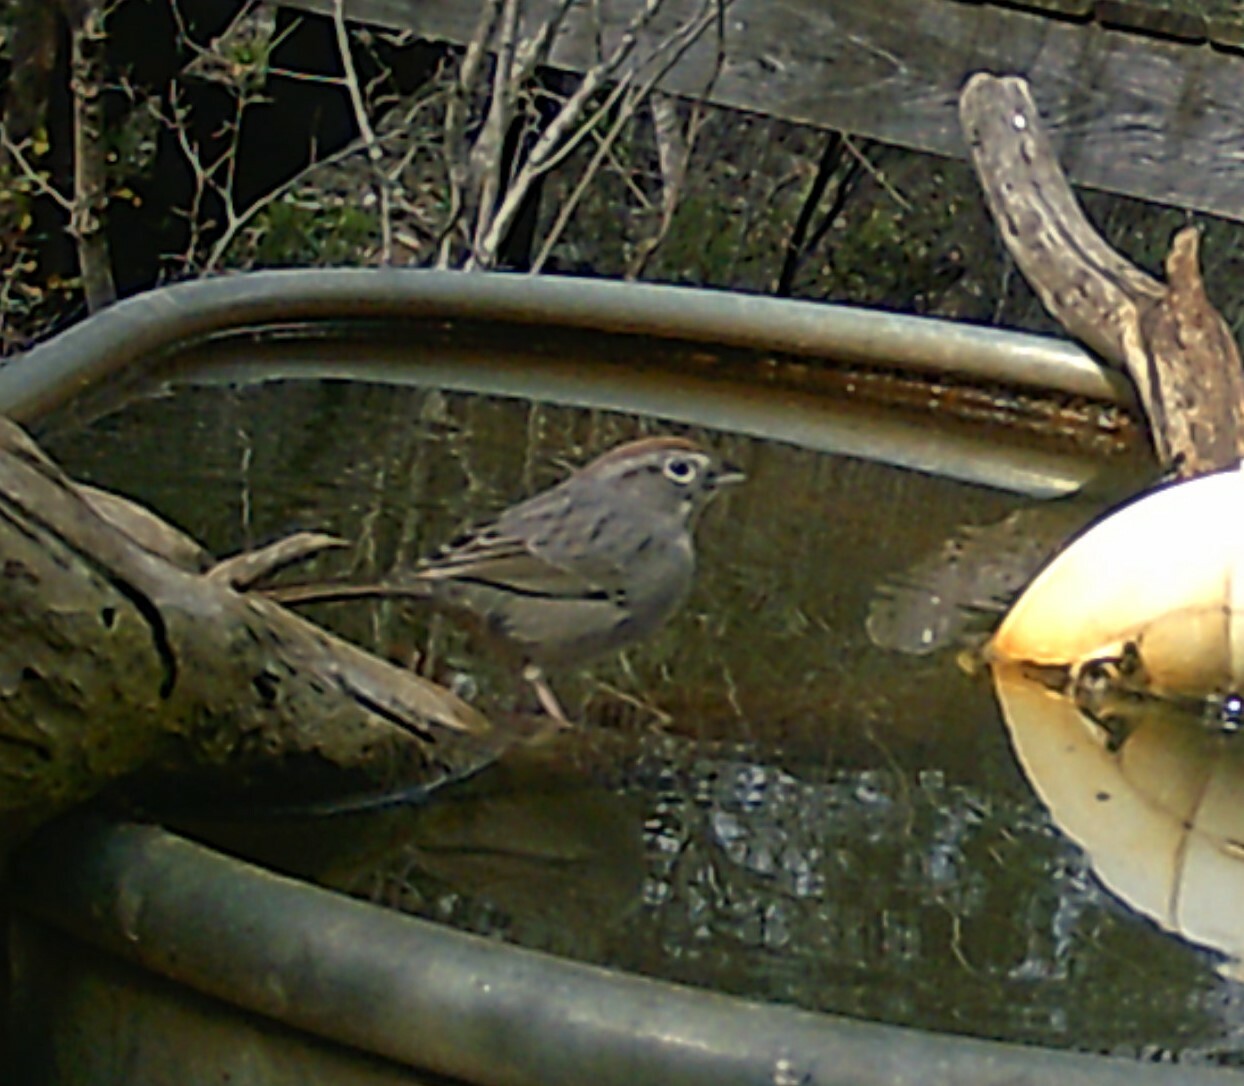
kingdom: Animalia
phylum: Chordata
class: Aves
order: Passeriformes
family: Passerellidae
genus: Aimophila
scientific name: Aimophila ruficeps
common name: Rufous-crowned sparrow
